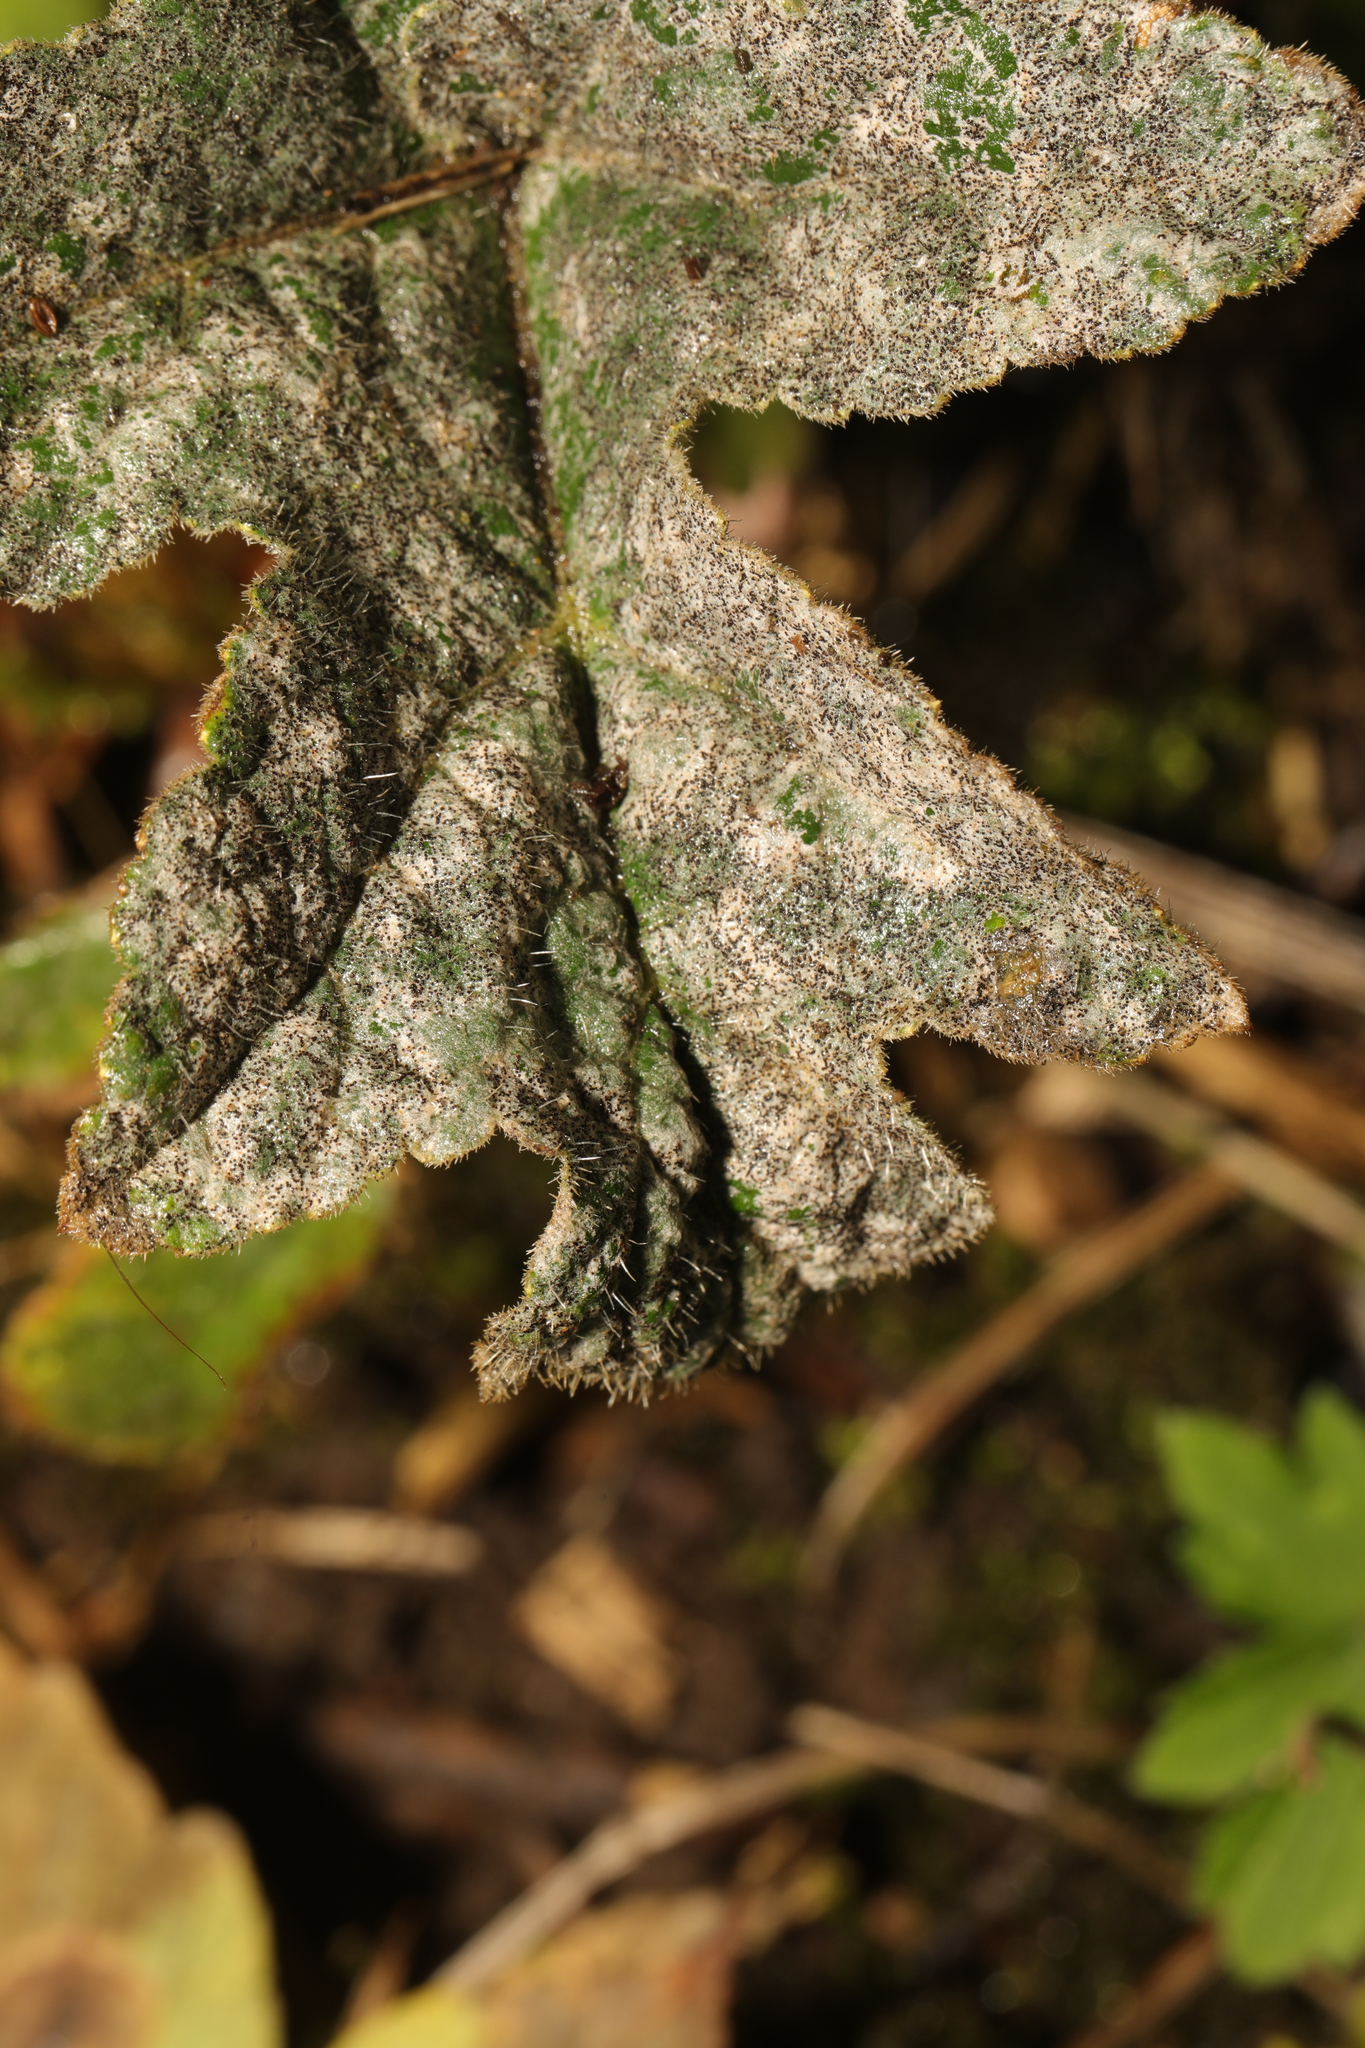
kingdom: Fungi
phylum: Ascomycota
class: Leotiomycetes
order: Helotiales
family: Erysiphaceae
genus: Erysiphe
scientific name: Erysiphe heraclei
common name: Umbellifer mildew
